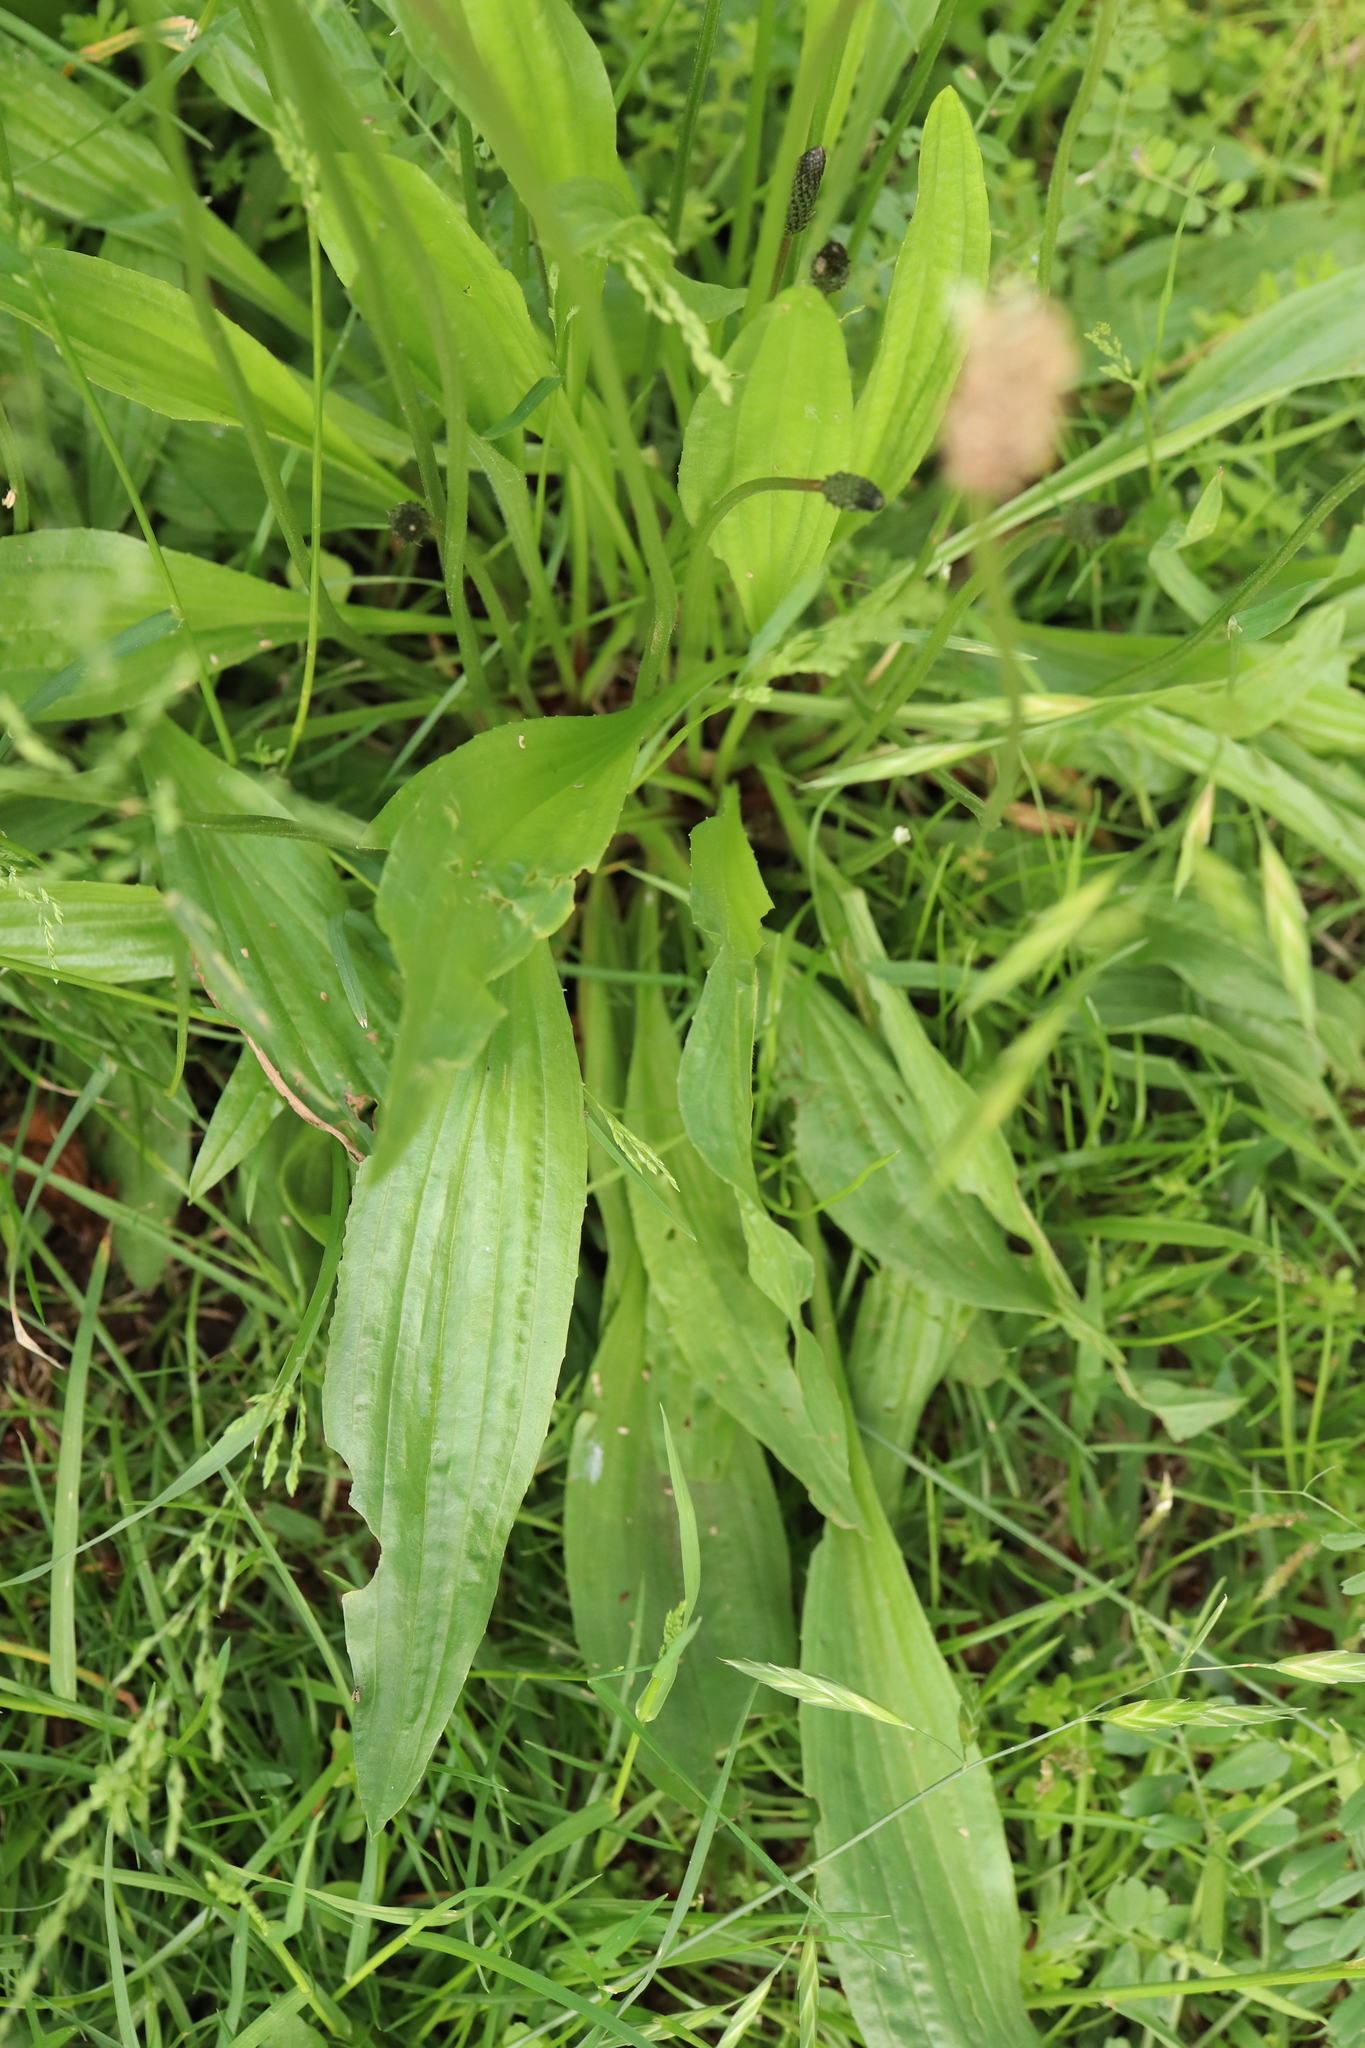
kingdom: Plantae
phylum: Tracheophyta
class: Magnoliopsida
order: Lamiales
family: Plantaginaceae
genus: Plantago
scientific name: Plantago lanceolata
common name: Ribwort plantain
